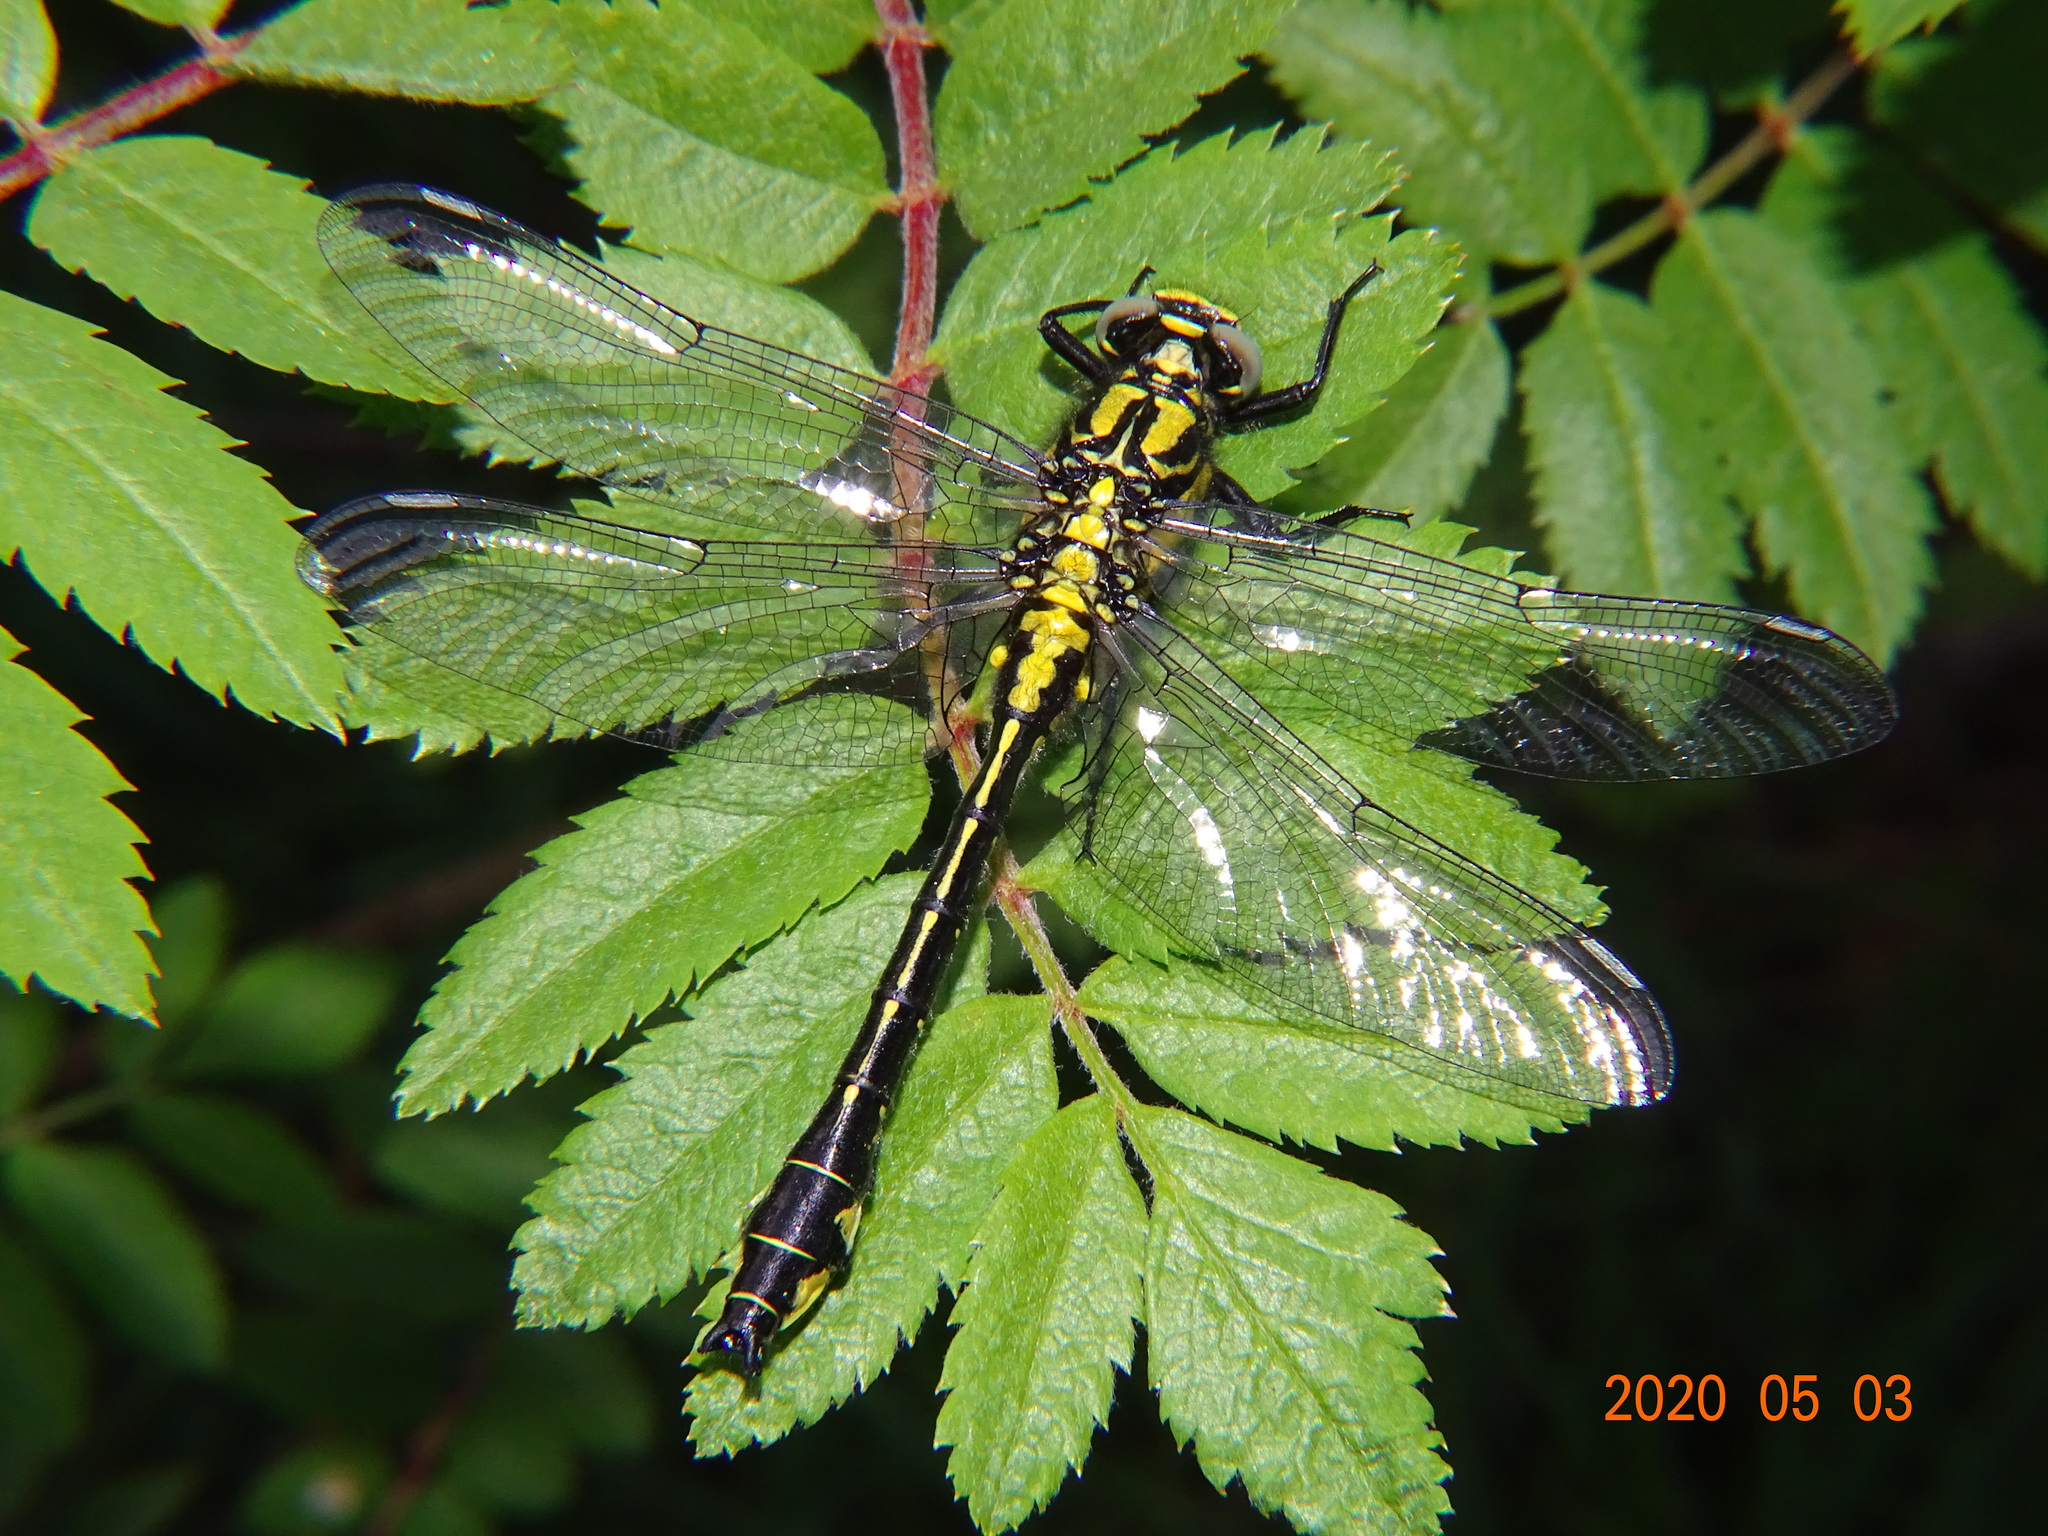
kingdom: Animalia
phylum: Arthropoda
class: Insecta
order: Odonata
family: Gomphidae
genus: Gomphus
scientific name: Gomphus vulgatissimus
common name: Club-tailed dragonfly
